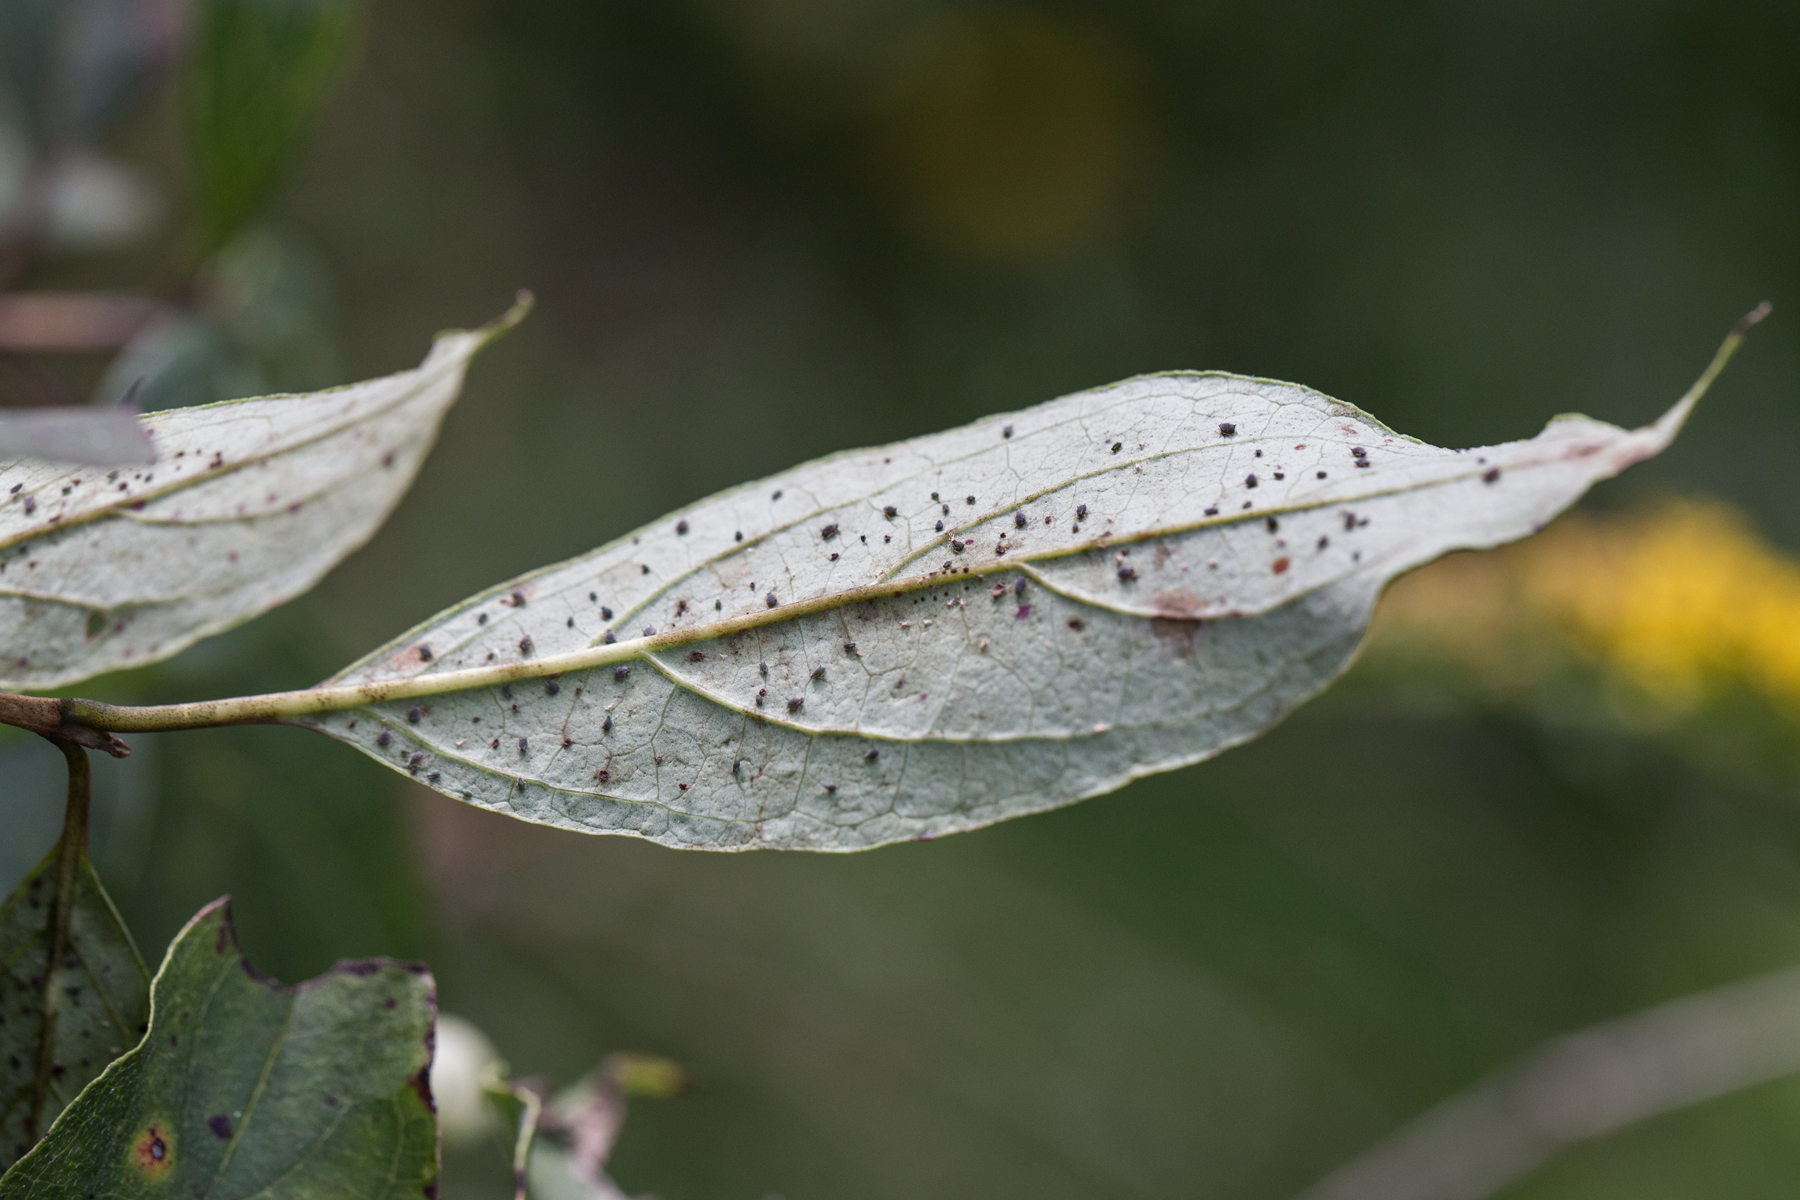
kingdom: Plantae
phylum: Tracheophyta
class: Magnoliopsida
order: Cornales
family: Cornaceae
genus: Cornus
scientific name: Cornus racemosa
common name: Panicled dogwood
